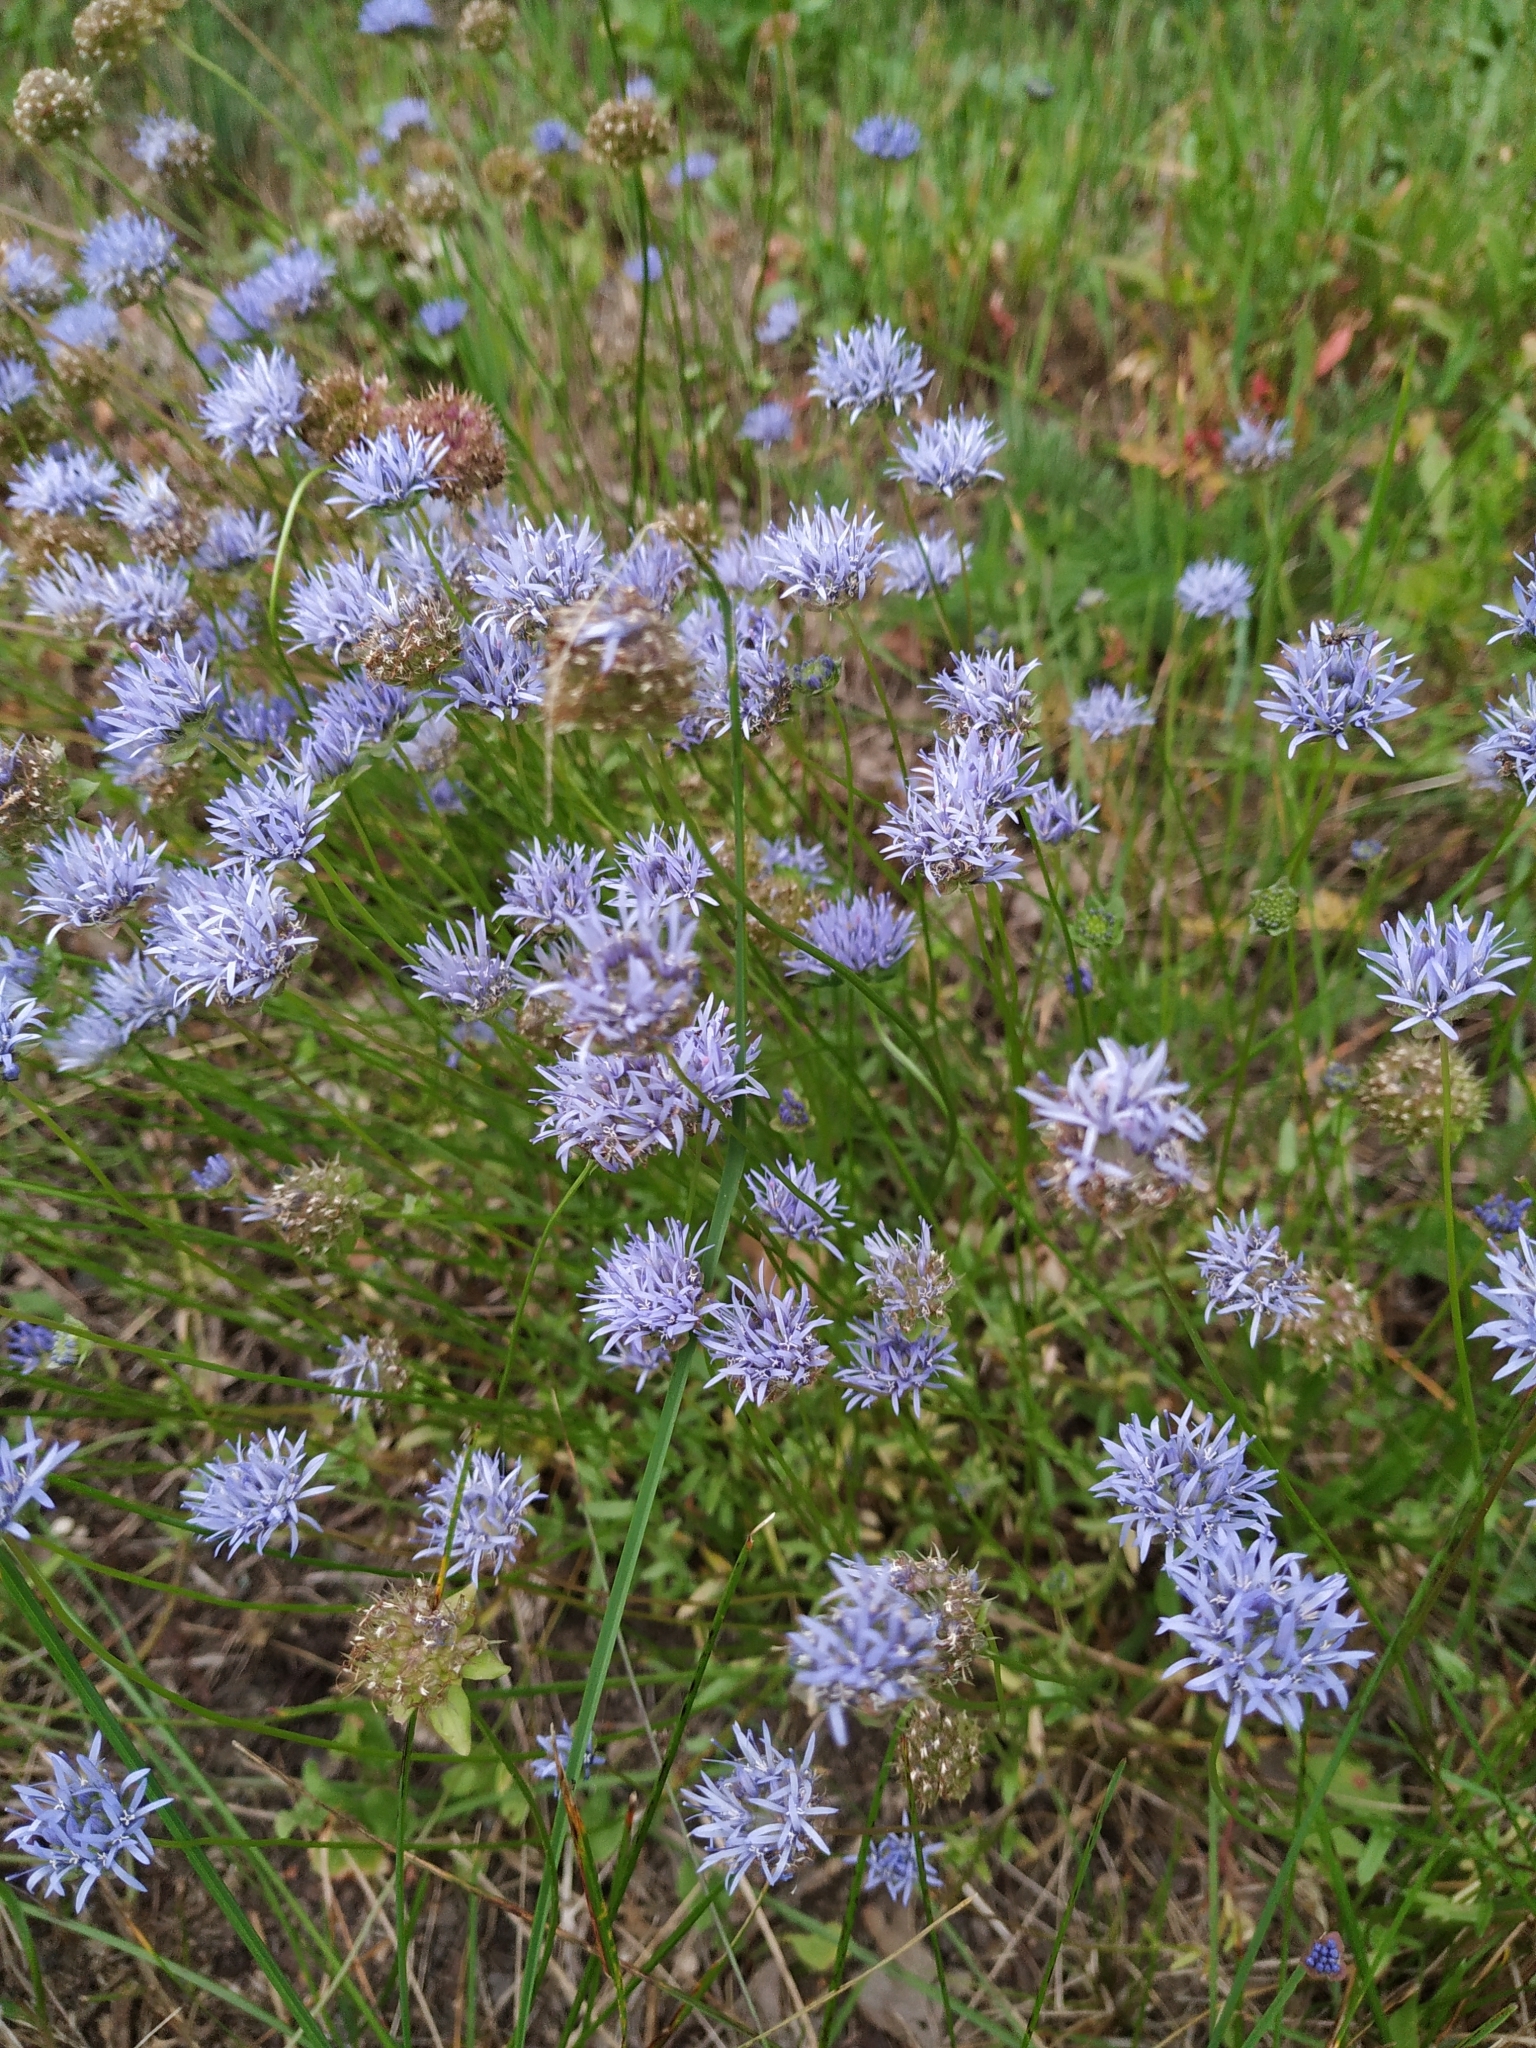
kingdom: Plantae
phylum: Tracheophyta
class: Magnoliopsida
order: Asterales
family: Campanulaceae
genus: Jasione
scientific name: Jasione montana
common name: Sheep's-bit
